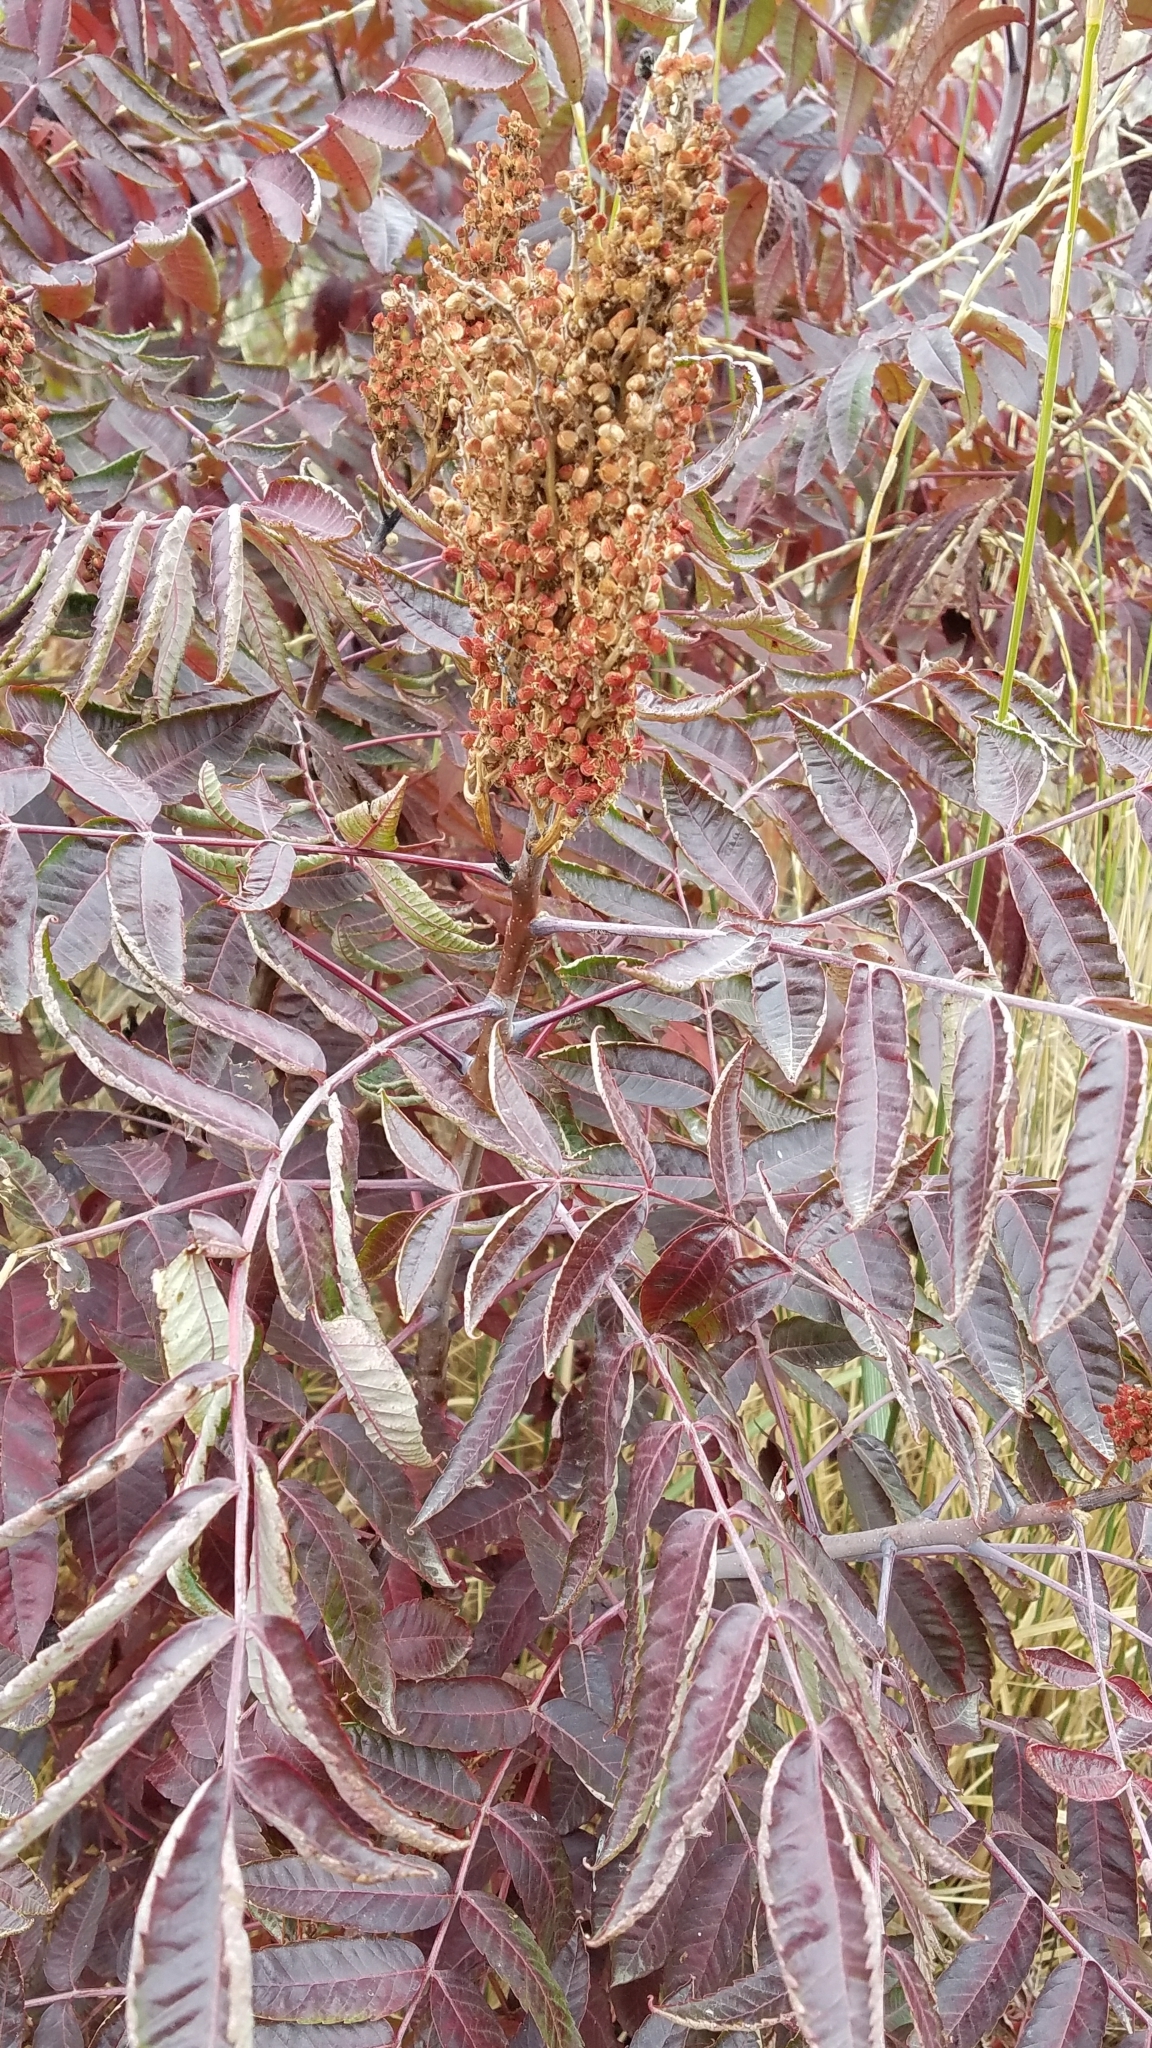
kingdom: Plantae
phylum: Tracheophyta
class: Magnoliopsida
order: Sapindales
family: Anacardiaceae
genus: Rhus
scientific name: Rhus glabra
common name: Scarlet sumac
